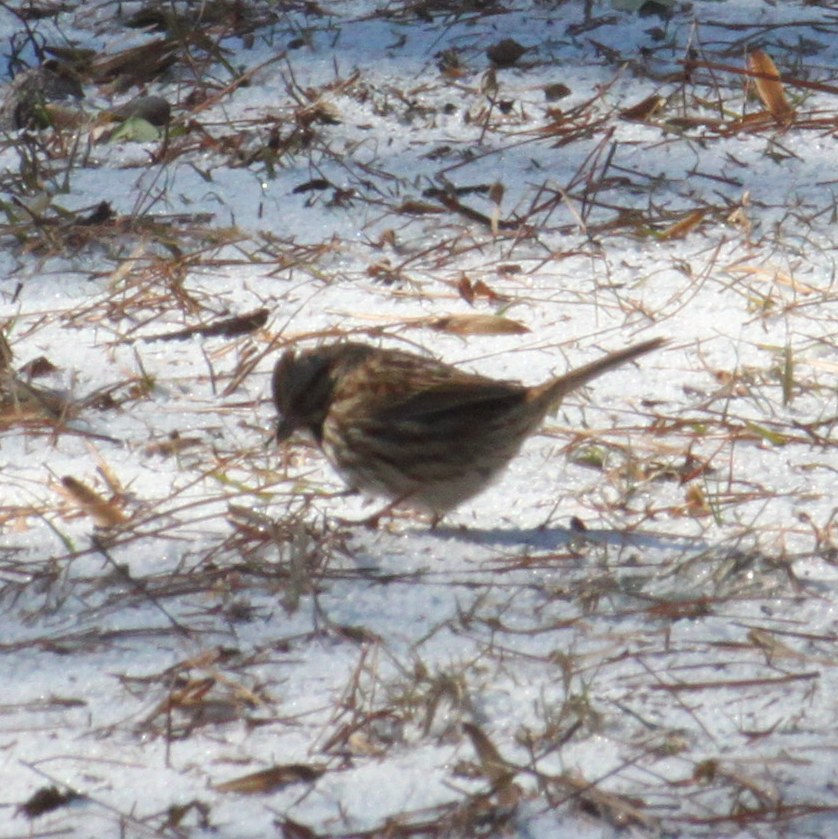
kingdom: Animalia
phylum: Chordata
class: Aves
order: Passeriformes
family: Passerellidae
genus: Melospiza
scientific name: Melospiza melodia
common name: Song sparrow
